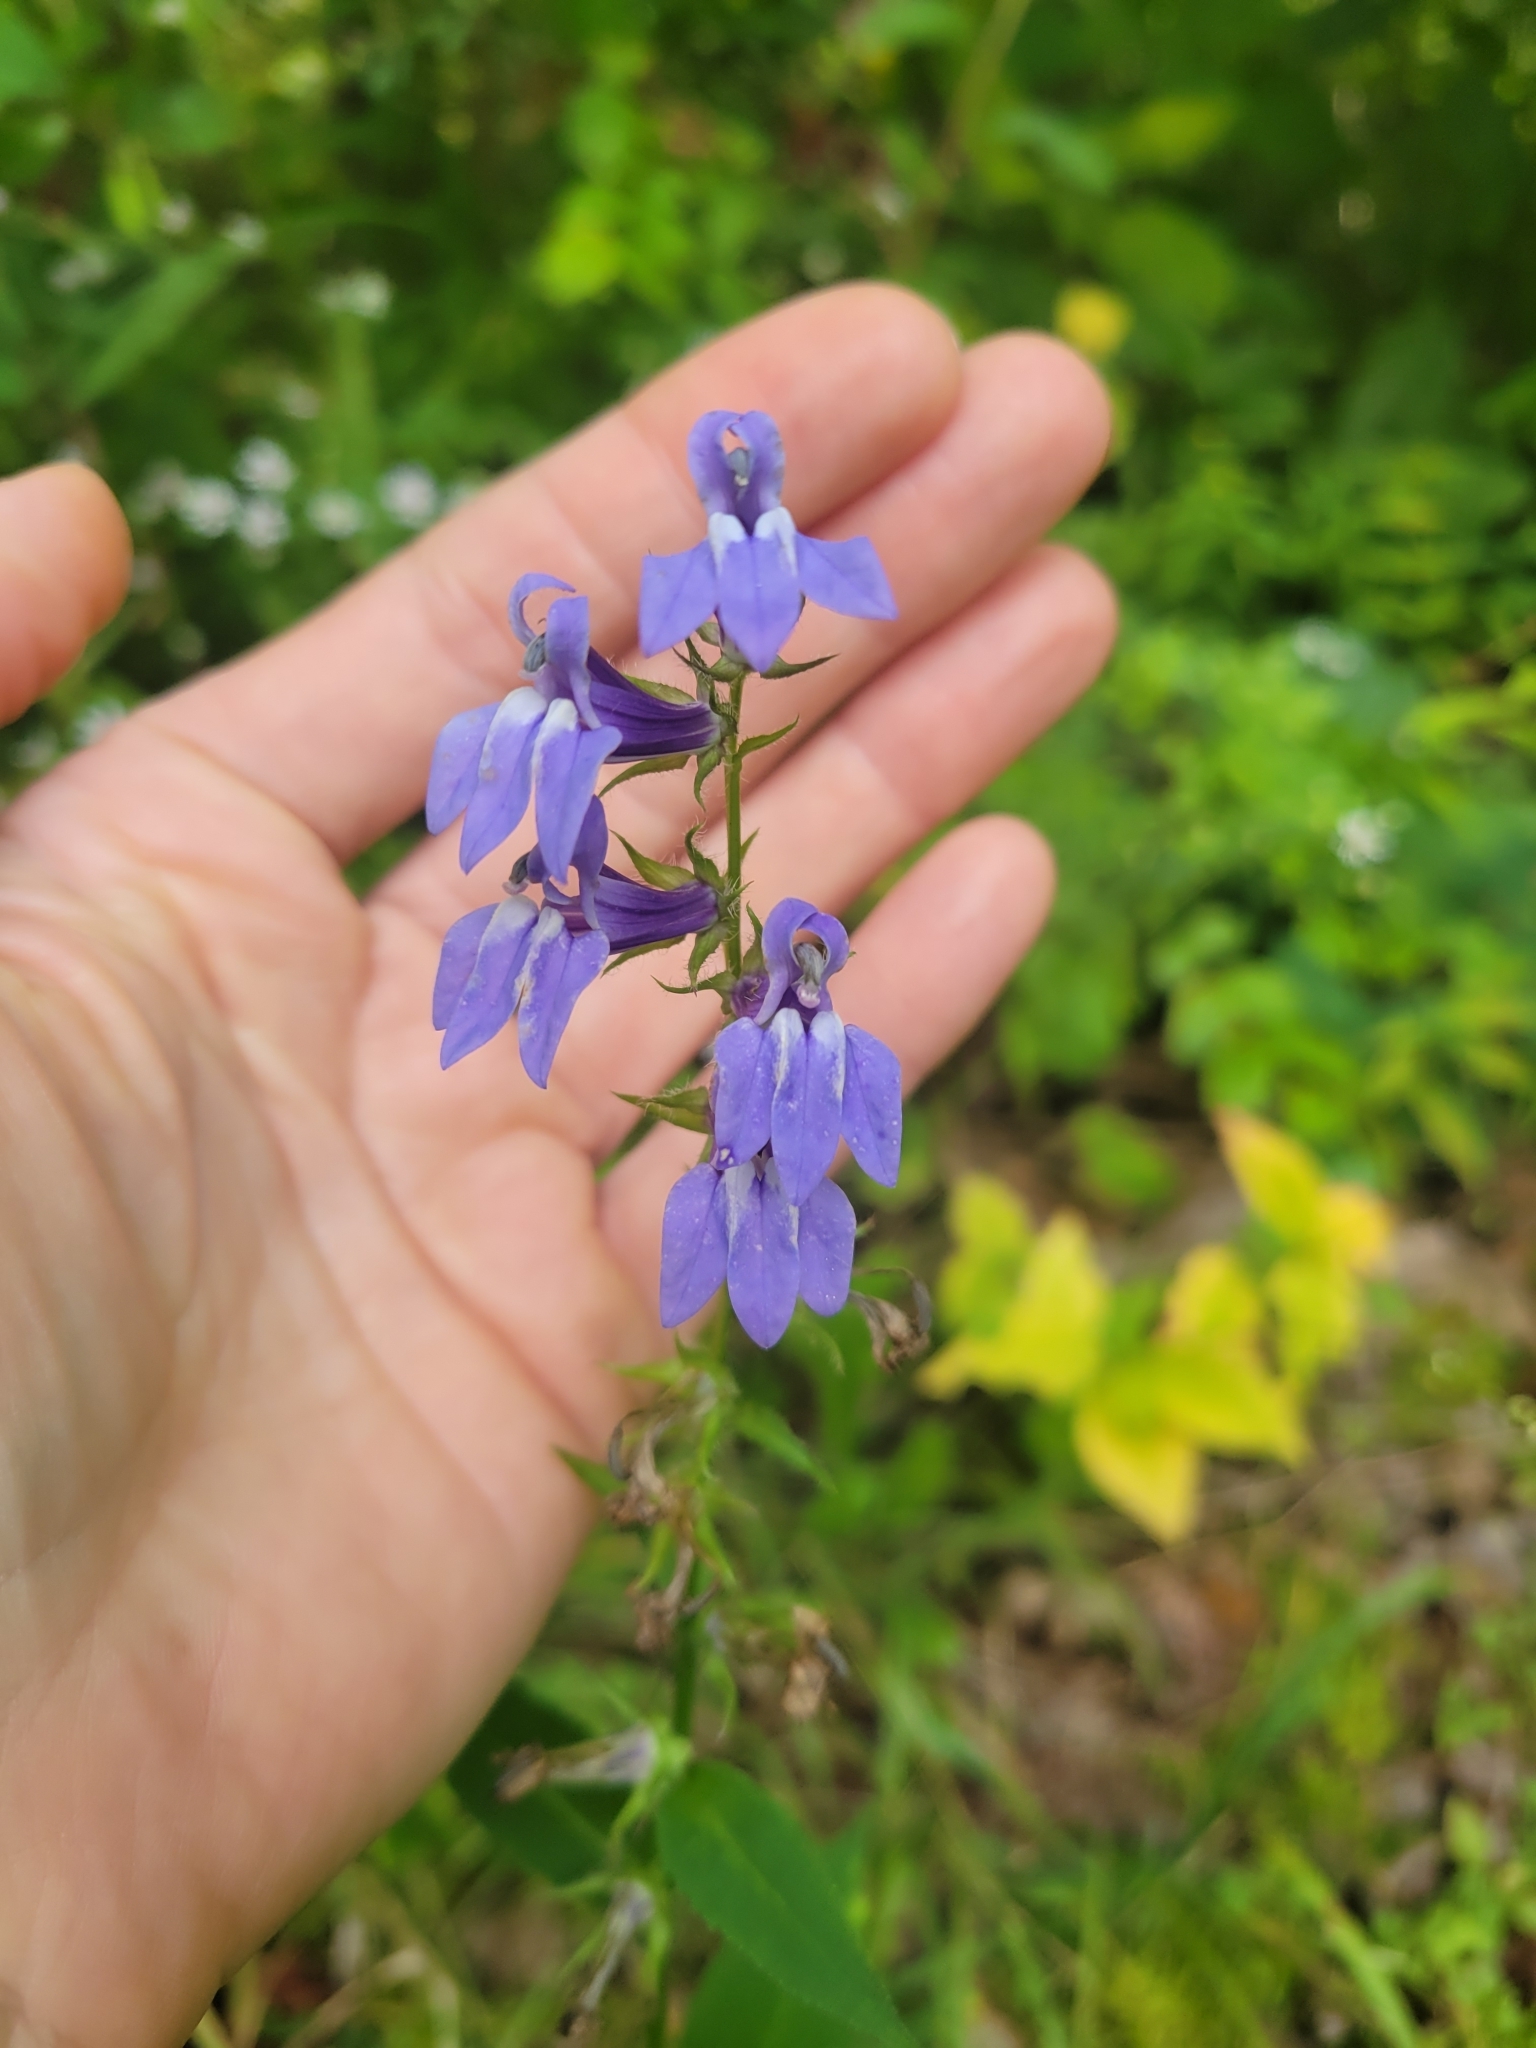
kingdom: Plantae
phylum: Tracheophyta
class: Magnoliopsida
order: Asterales
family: Campanulaceae
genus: Lobelia
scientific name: Lobelia siphilitica
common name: Great lobelia
